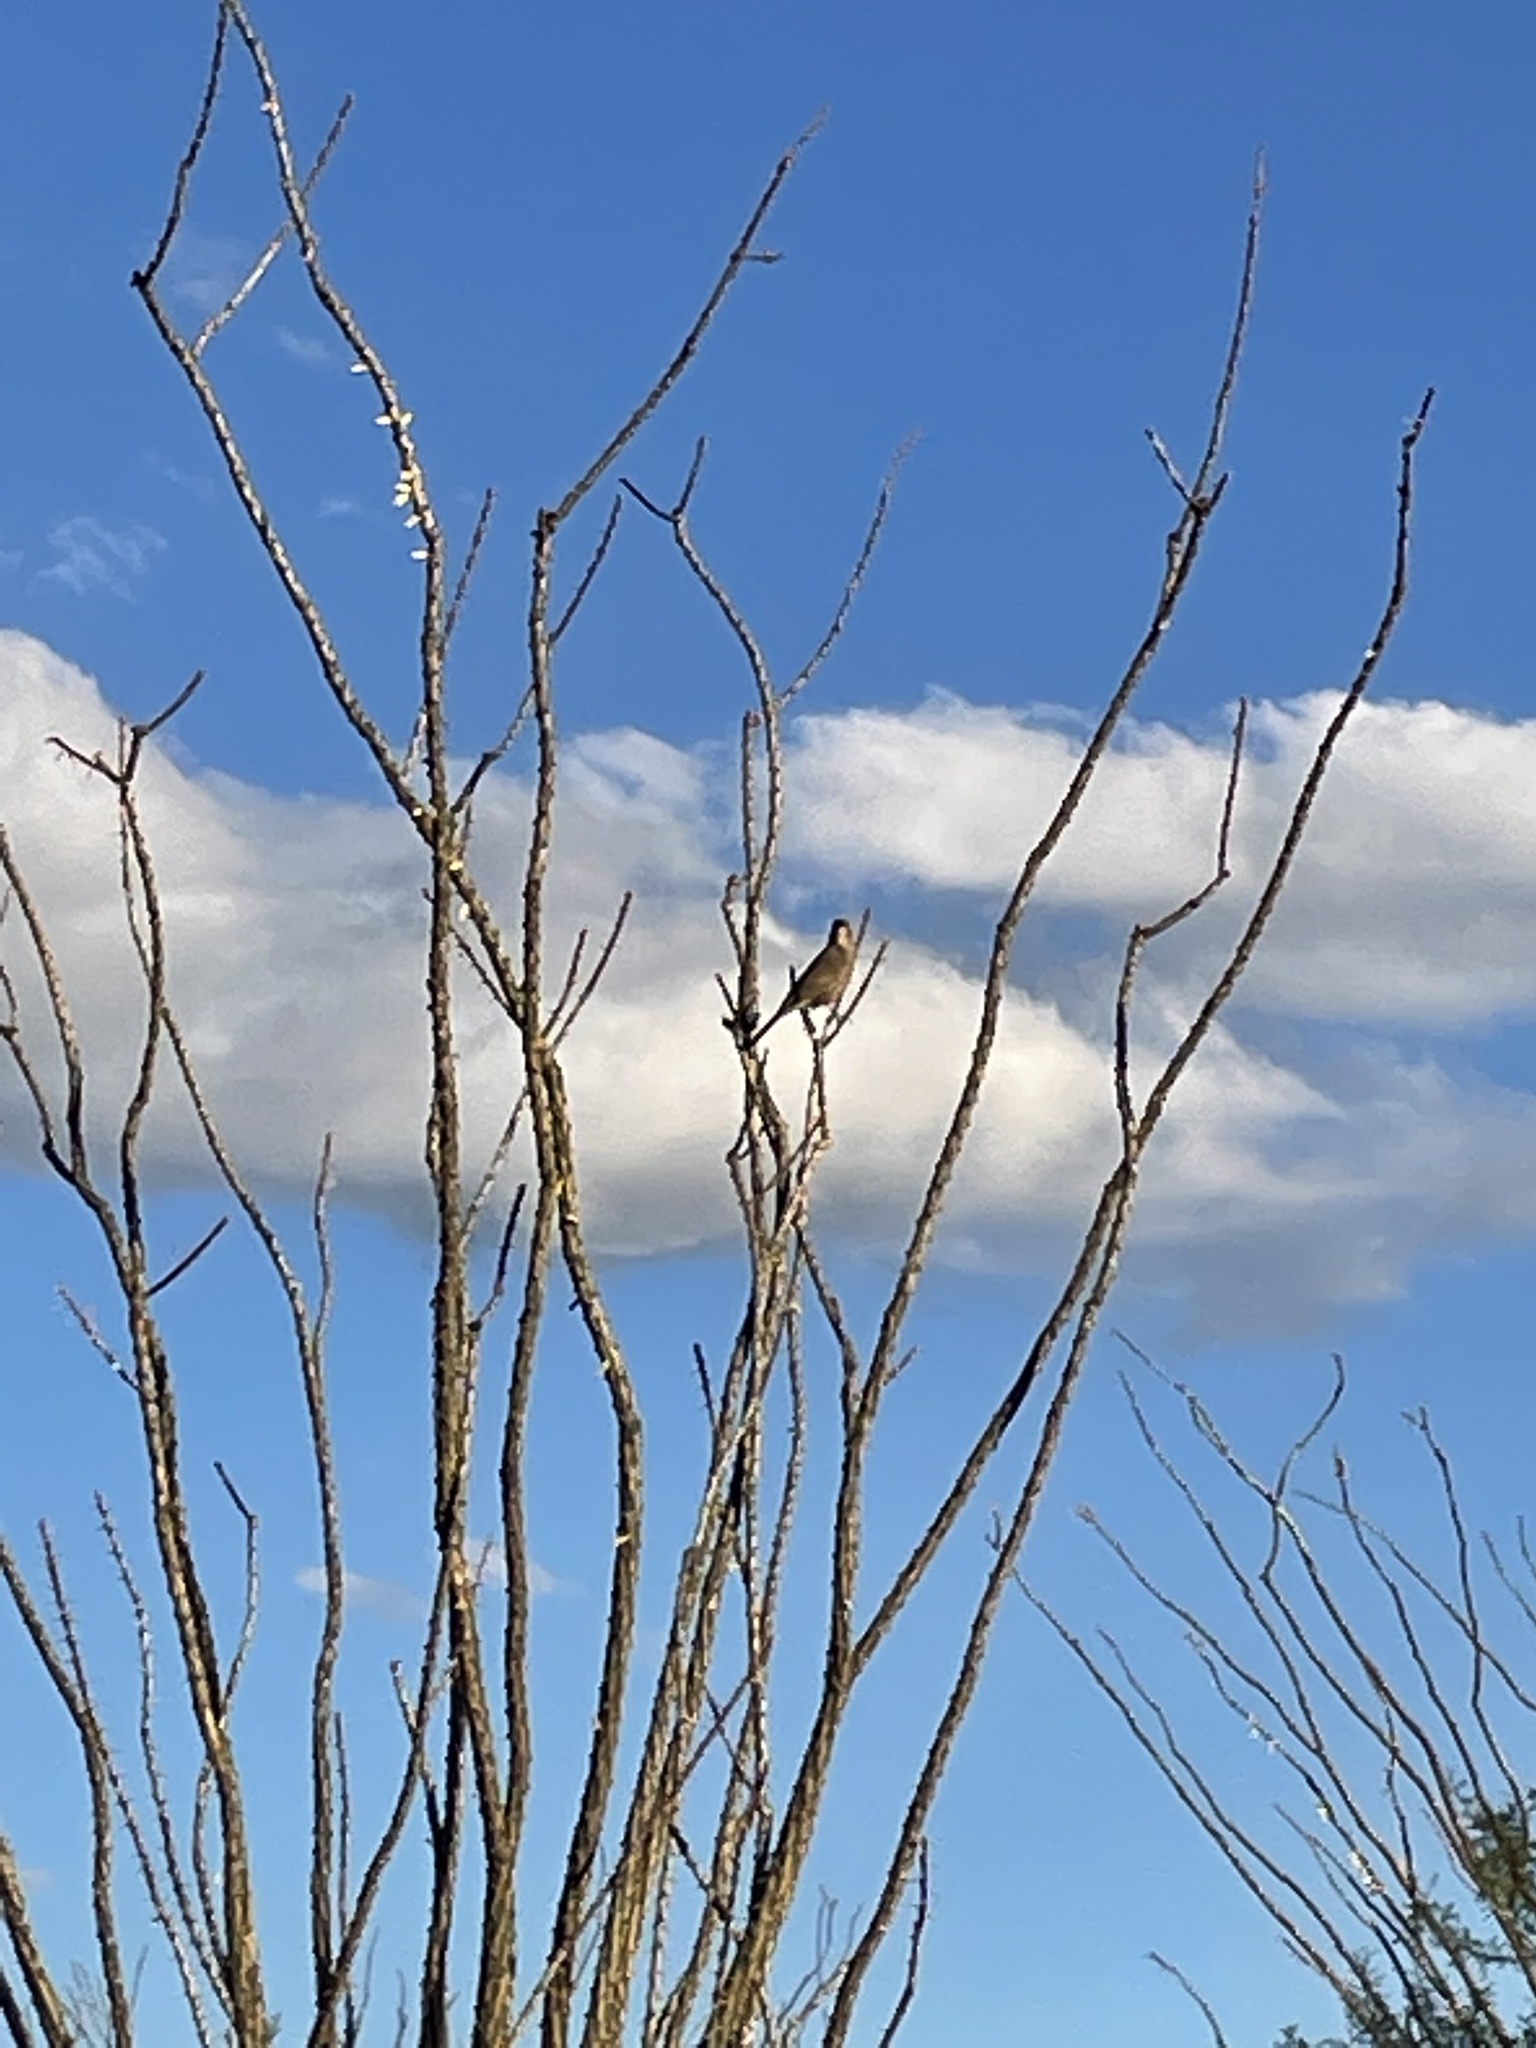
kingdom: Animalia
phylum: Chordata
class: Aves
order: Passeriformes
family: Mimidae
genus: Toxostoma
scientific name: Toxostoma curvirostre
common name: Curve-billed thrasher
